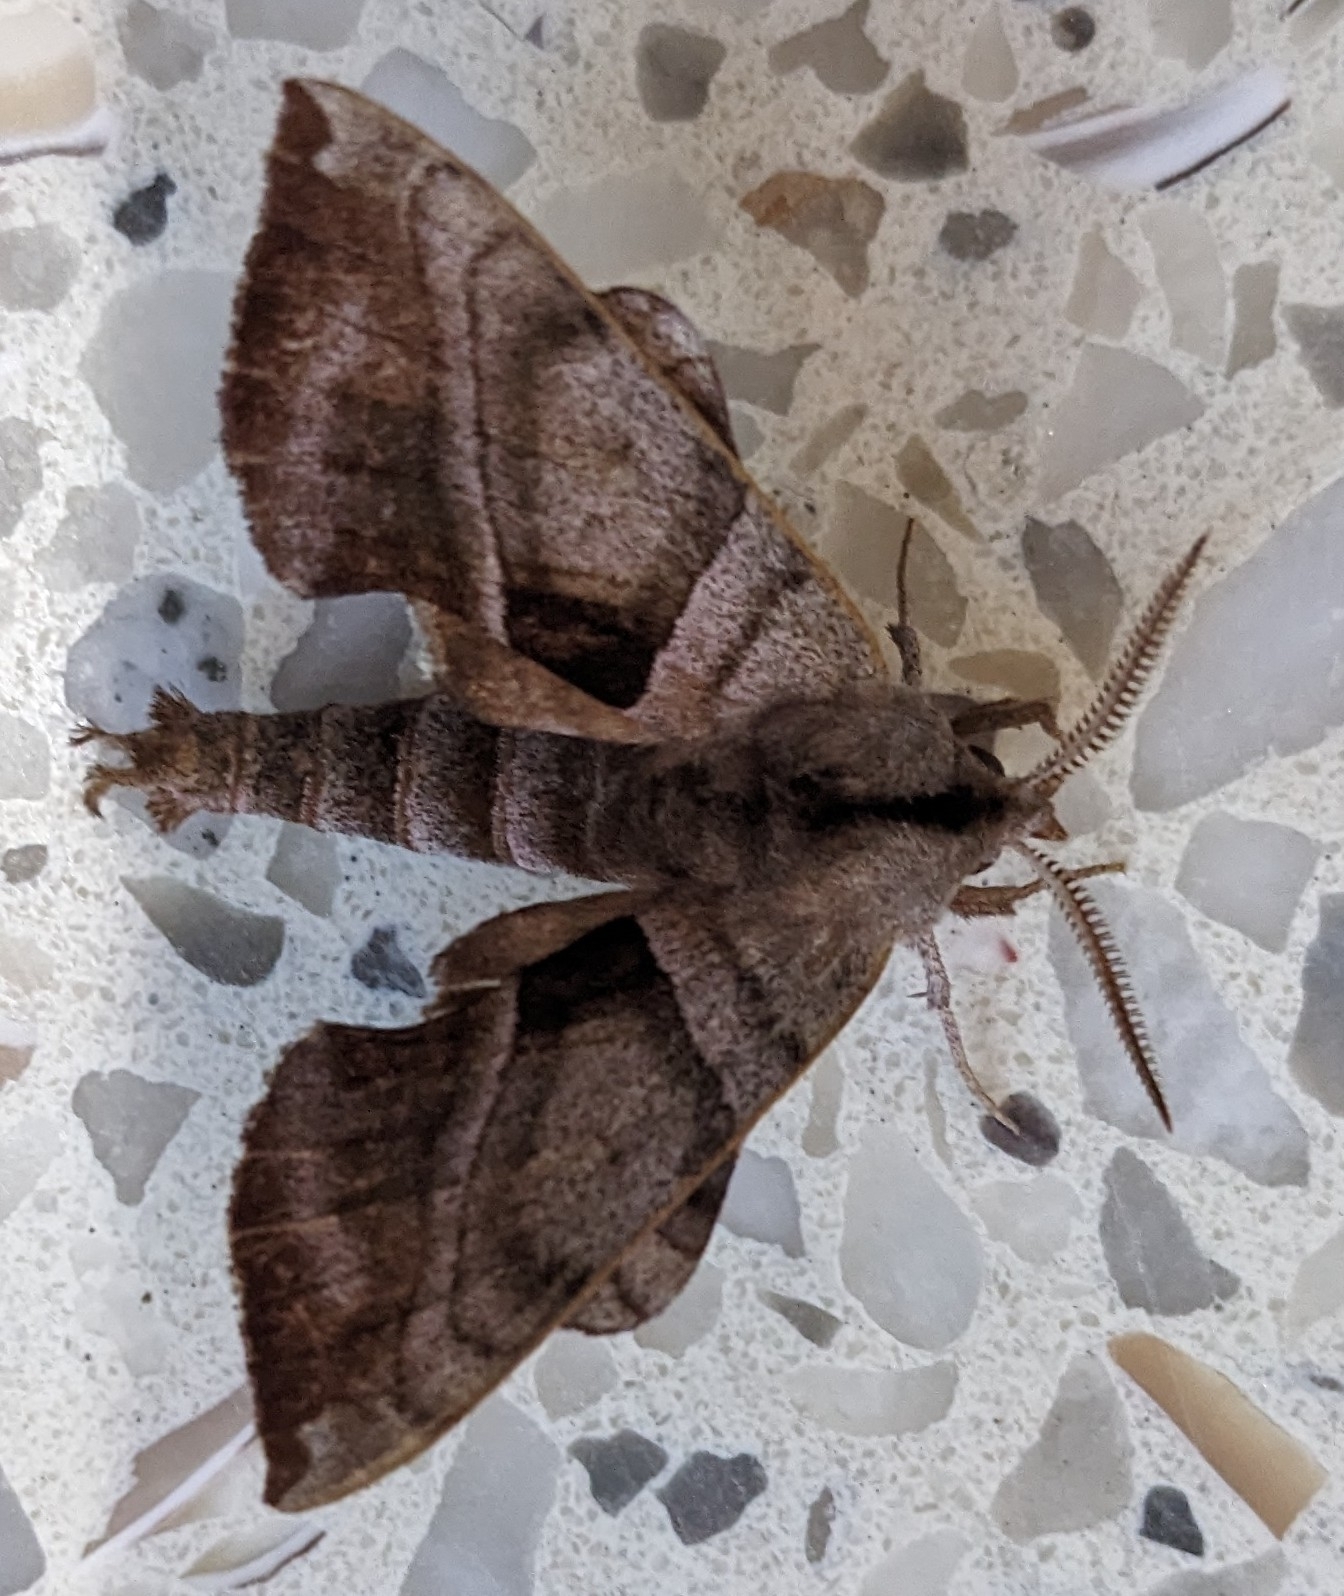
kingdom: Animalia
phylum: Arthropoda
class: Insecta
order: Lepidoptera
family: Sphingidae
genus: Amorpha
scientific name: Amorpha juglandis
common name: Walnut sphinx
